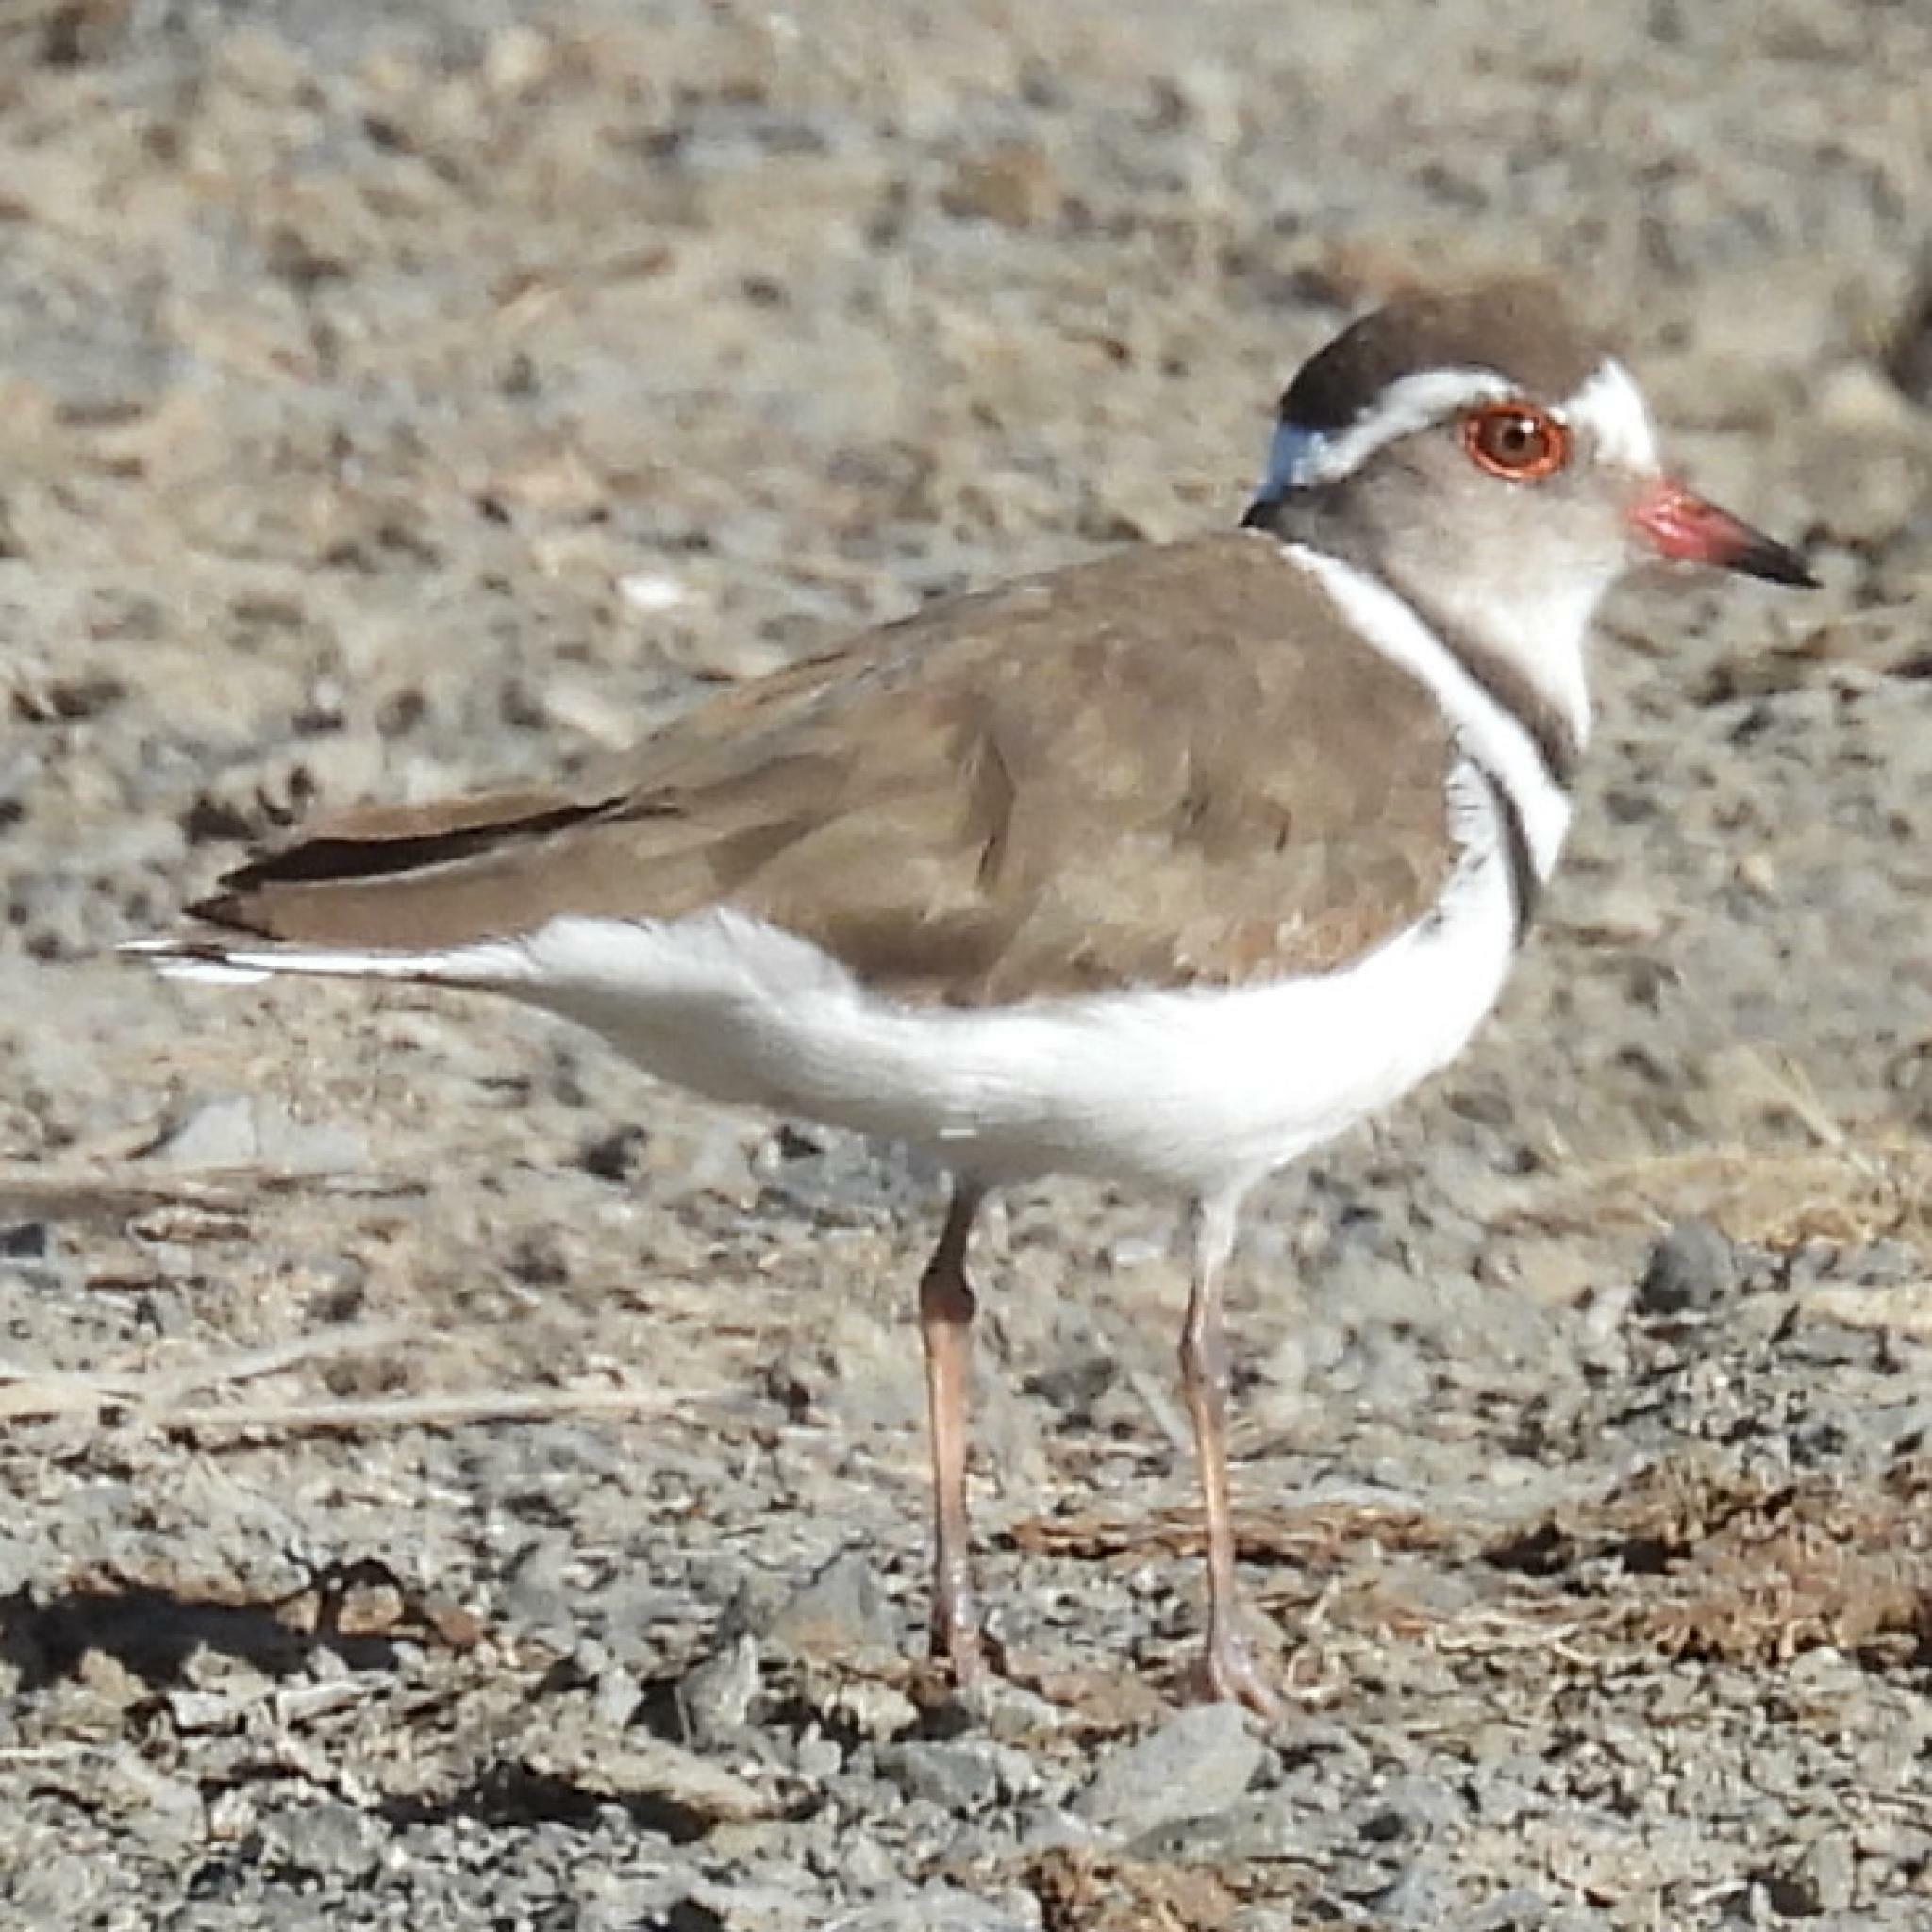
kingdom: Animalia
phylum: Chordata
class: Aves
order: Charadriiformes
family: Charadriidae
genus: Charadrius
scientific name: Charadrius tricollaris
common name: Three-banded plover
